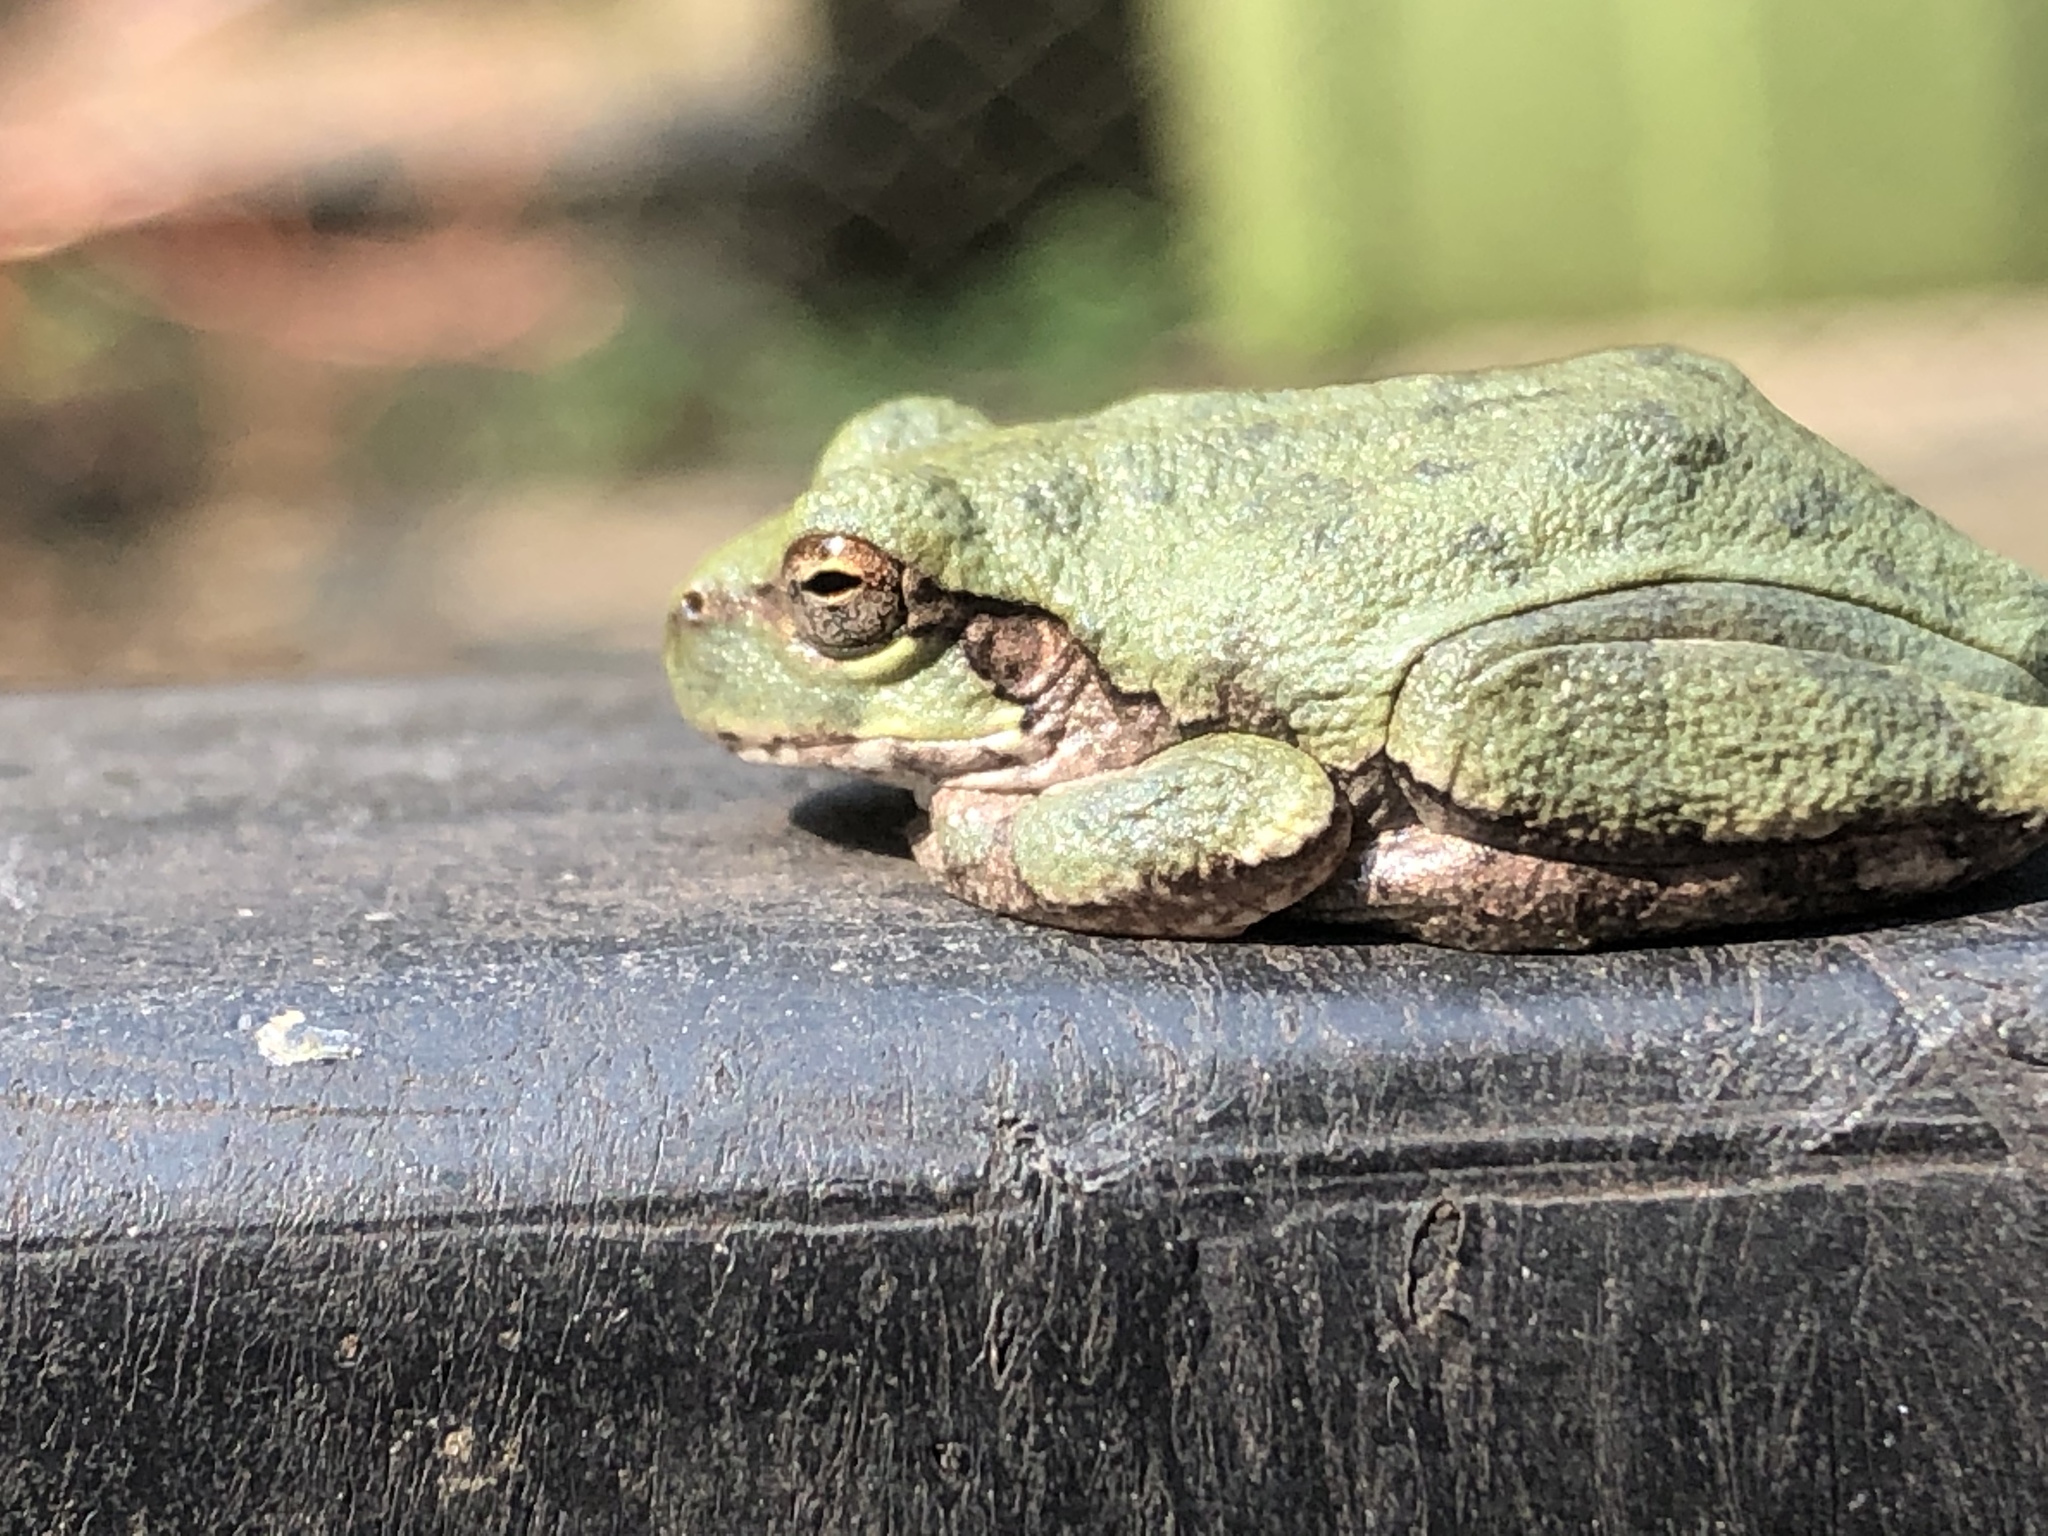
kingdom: Animalia
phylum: Chordata
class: Amphibia
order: Anura
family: Hylidae
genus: Hyla
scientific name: Hyla
